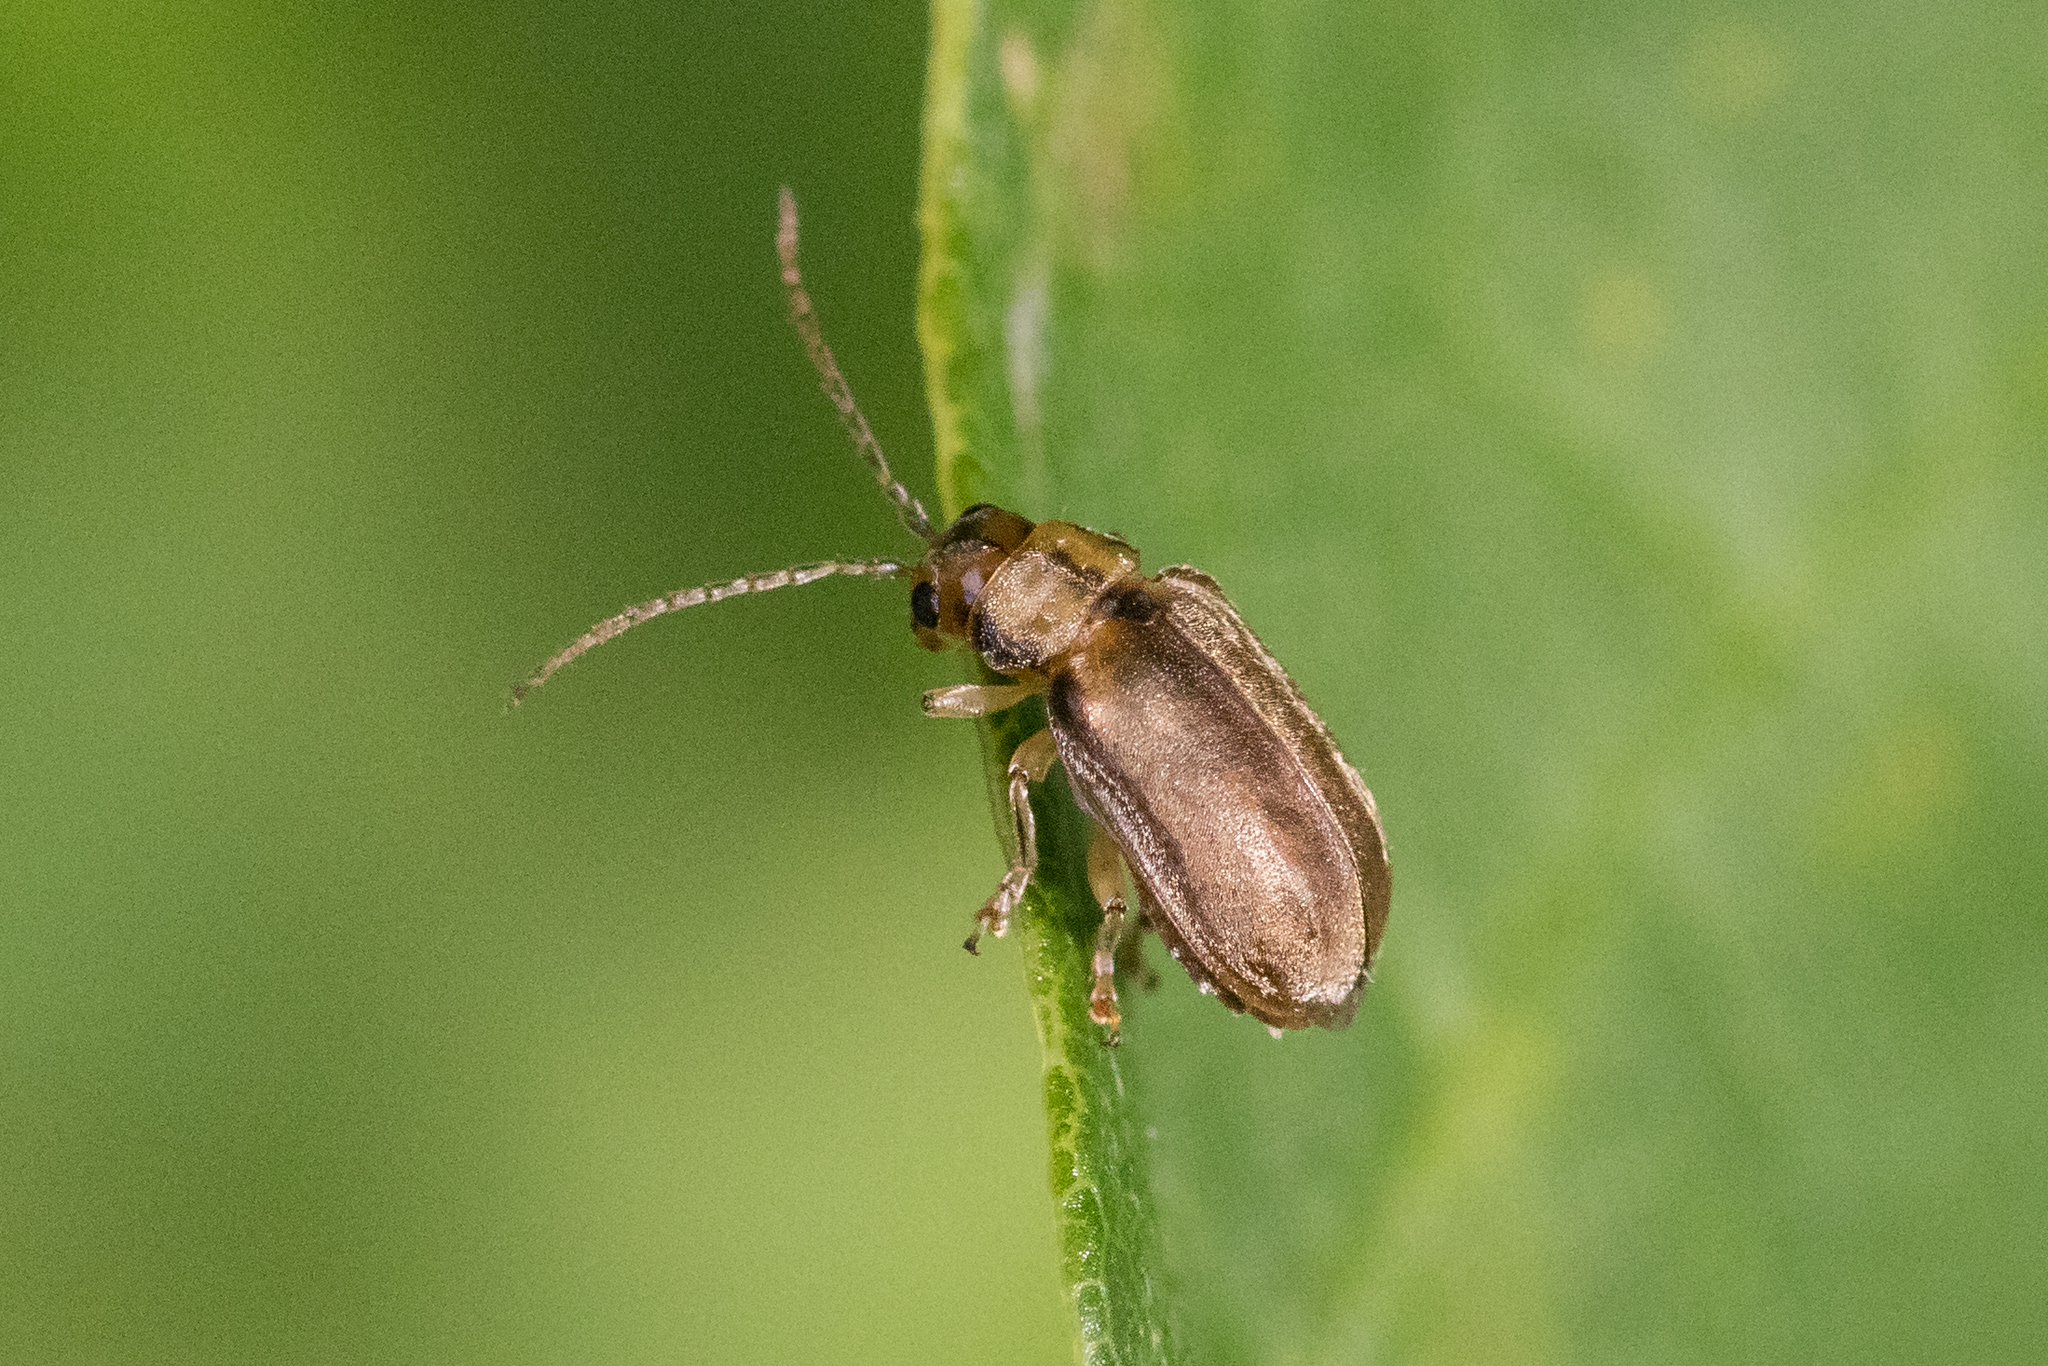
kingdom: Animalia
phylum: Arthropoda
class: Insecta
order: Coleoptera
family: Chrysomelidae
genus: Pyrrhalta
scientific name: Pyrrhalta viburni
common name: Guelder-rose leaf beetle
